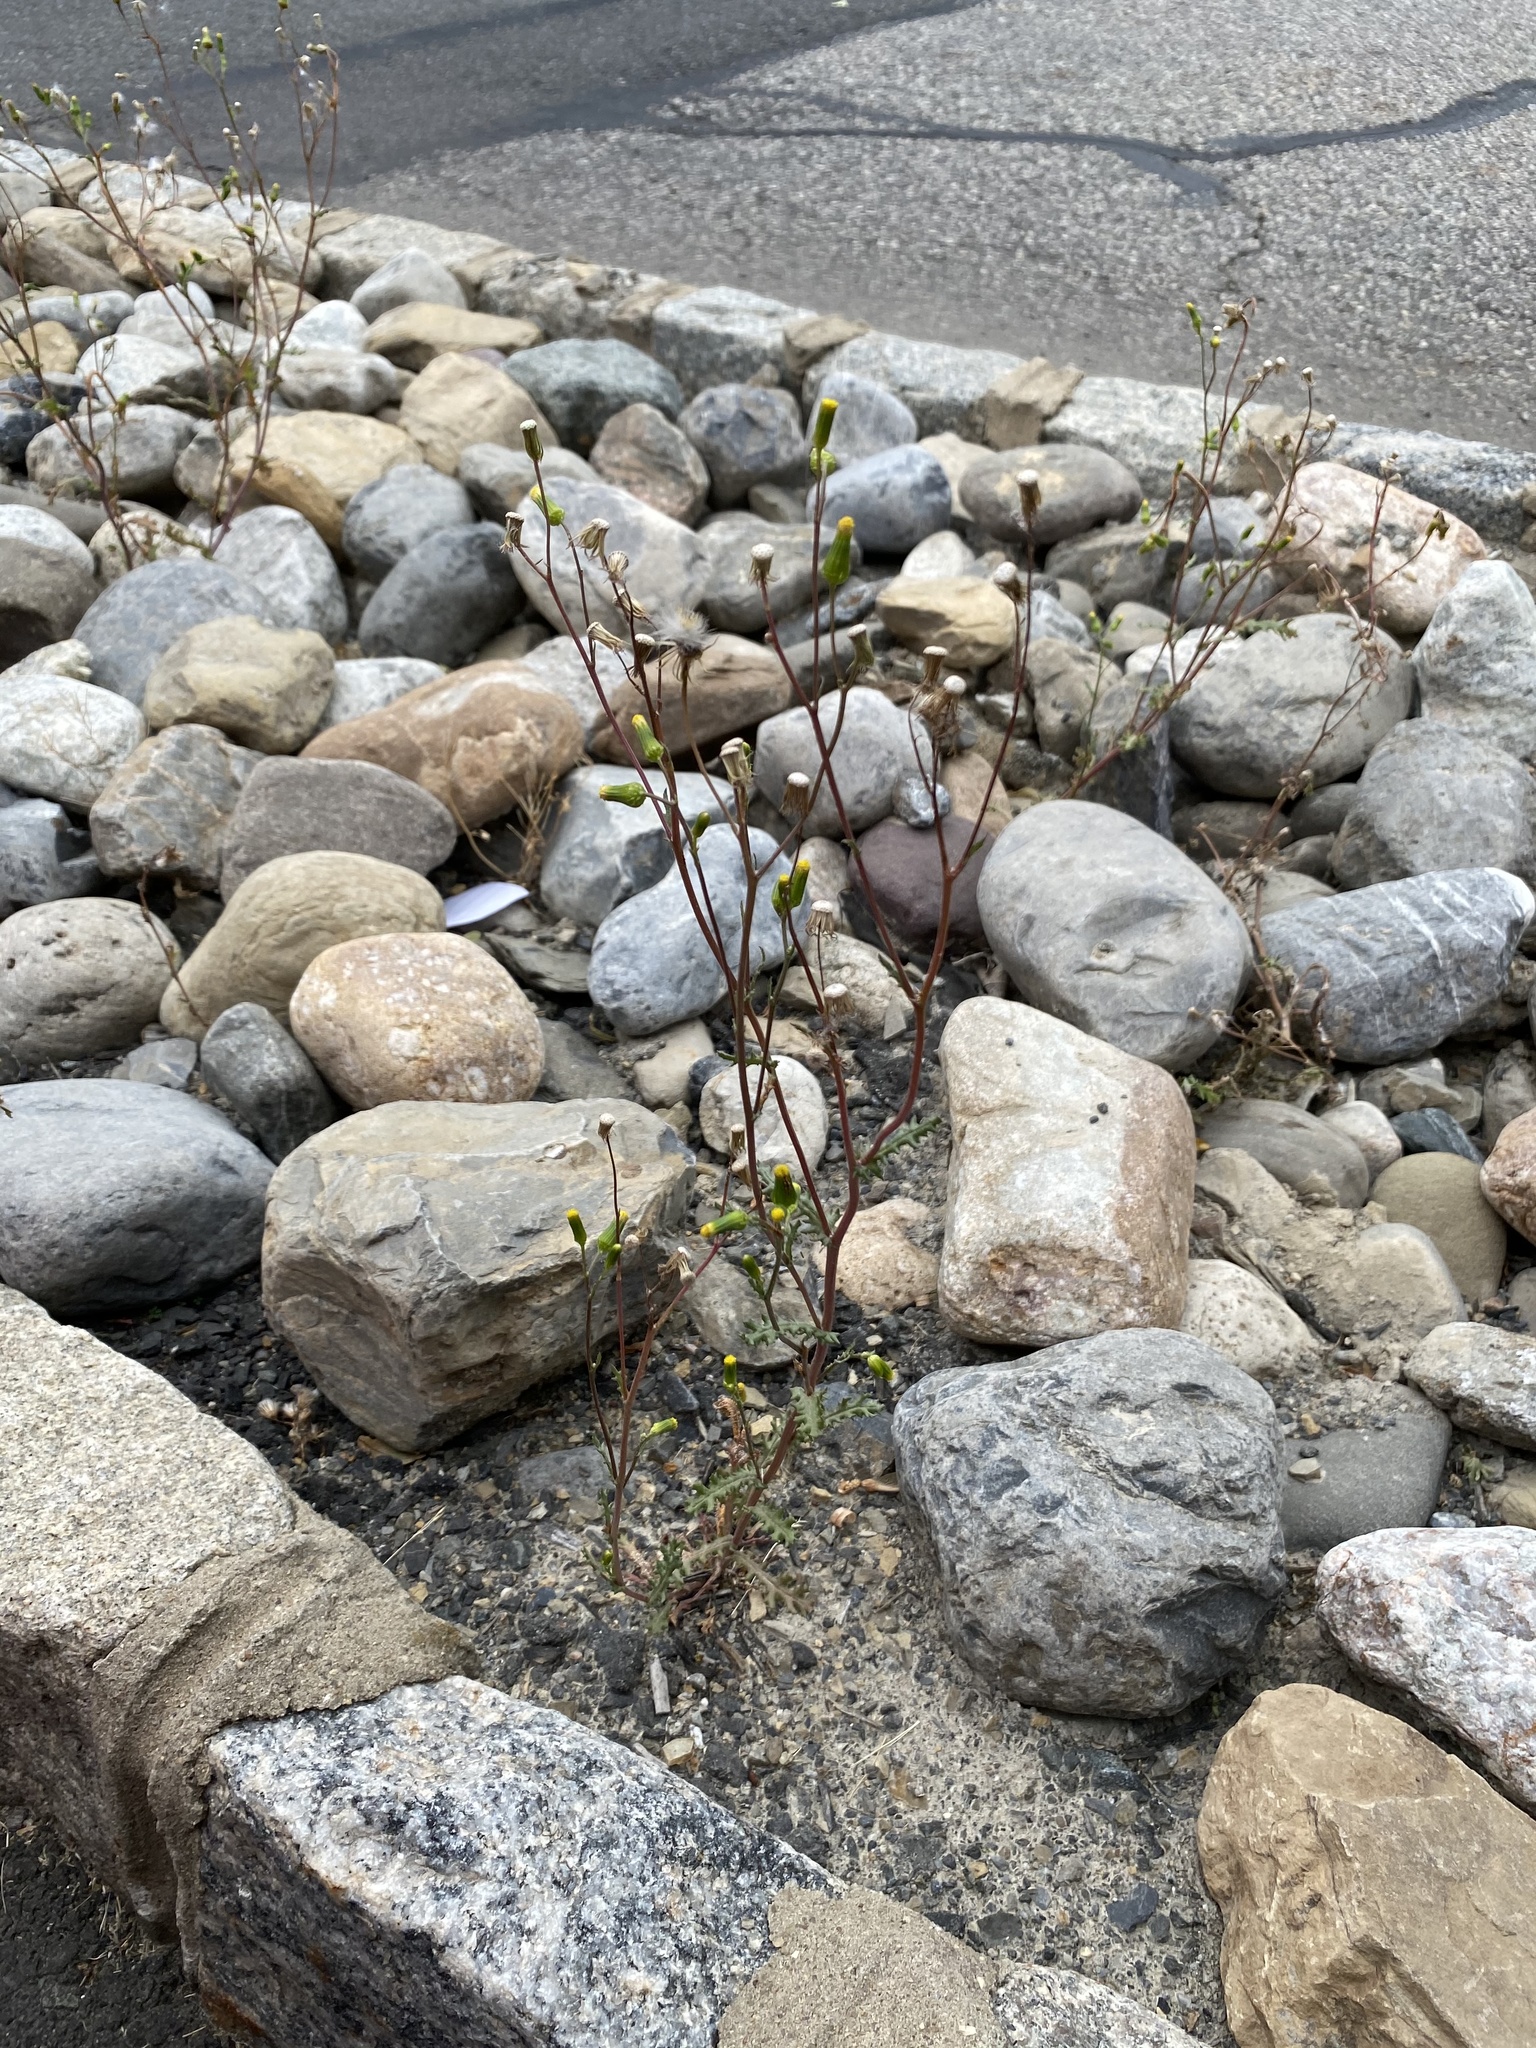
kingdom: Plantae
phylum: Tracheophyta
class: Magnoliopsida
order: Asterales
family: Asteraceae
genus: Senecio
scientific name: Senecio vulgaris
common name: Old-man-in-the-spring
